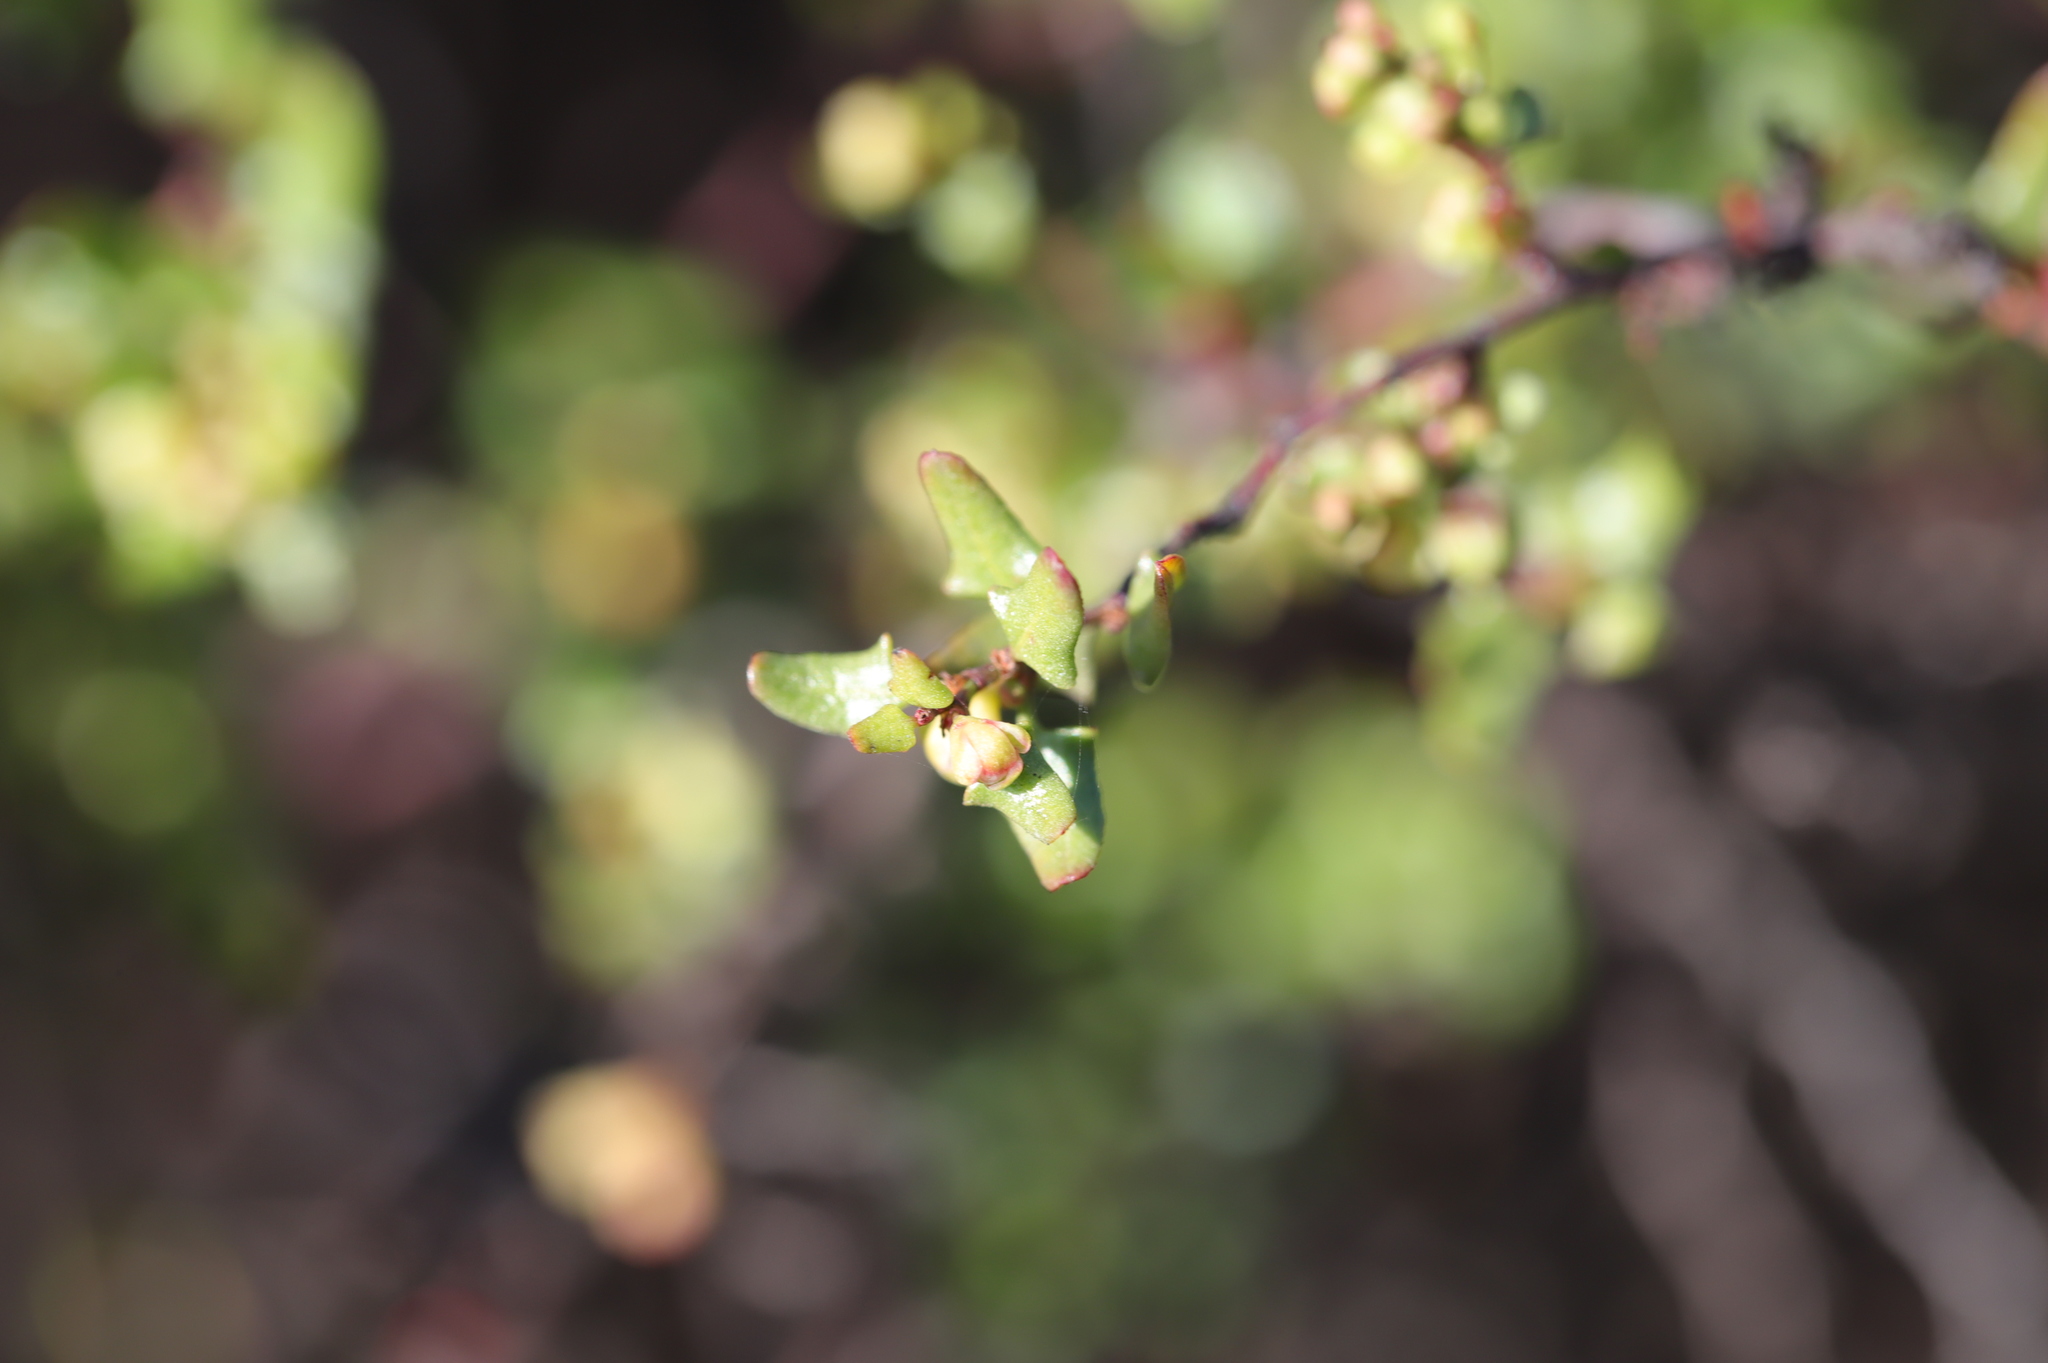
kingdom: Plantae
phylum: Tracheophyta
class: Magnoliopsida
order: Caryophyllales
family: Polygonaceae
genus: Muehlenbeckia
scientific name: Muehlenbeckia hastulata
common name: Wirevine
